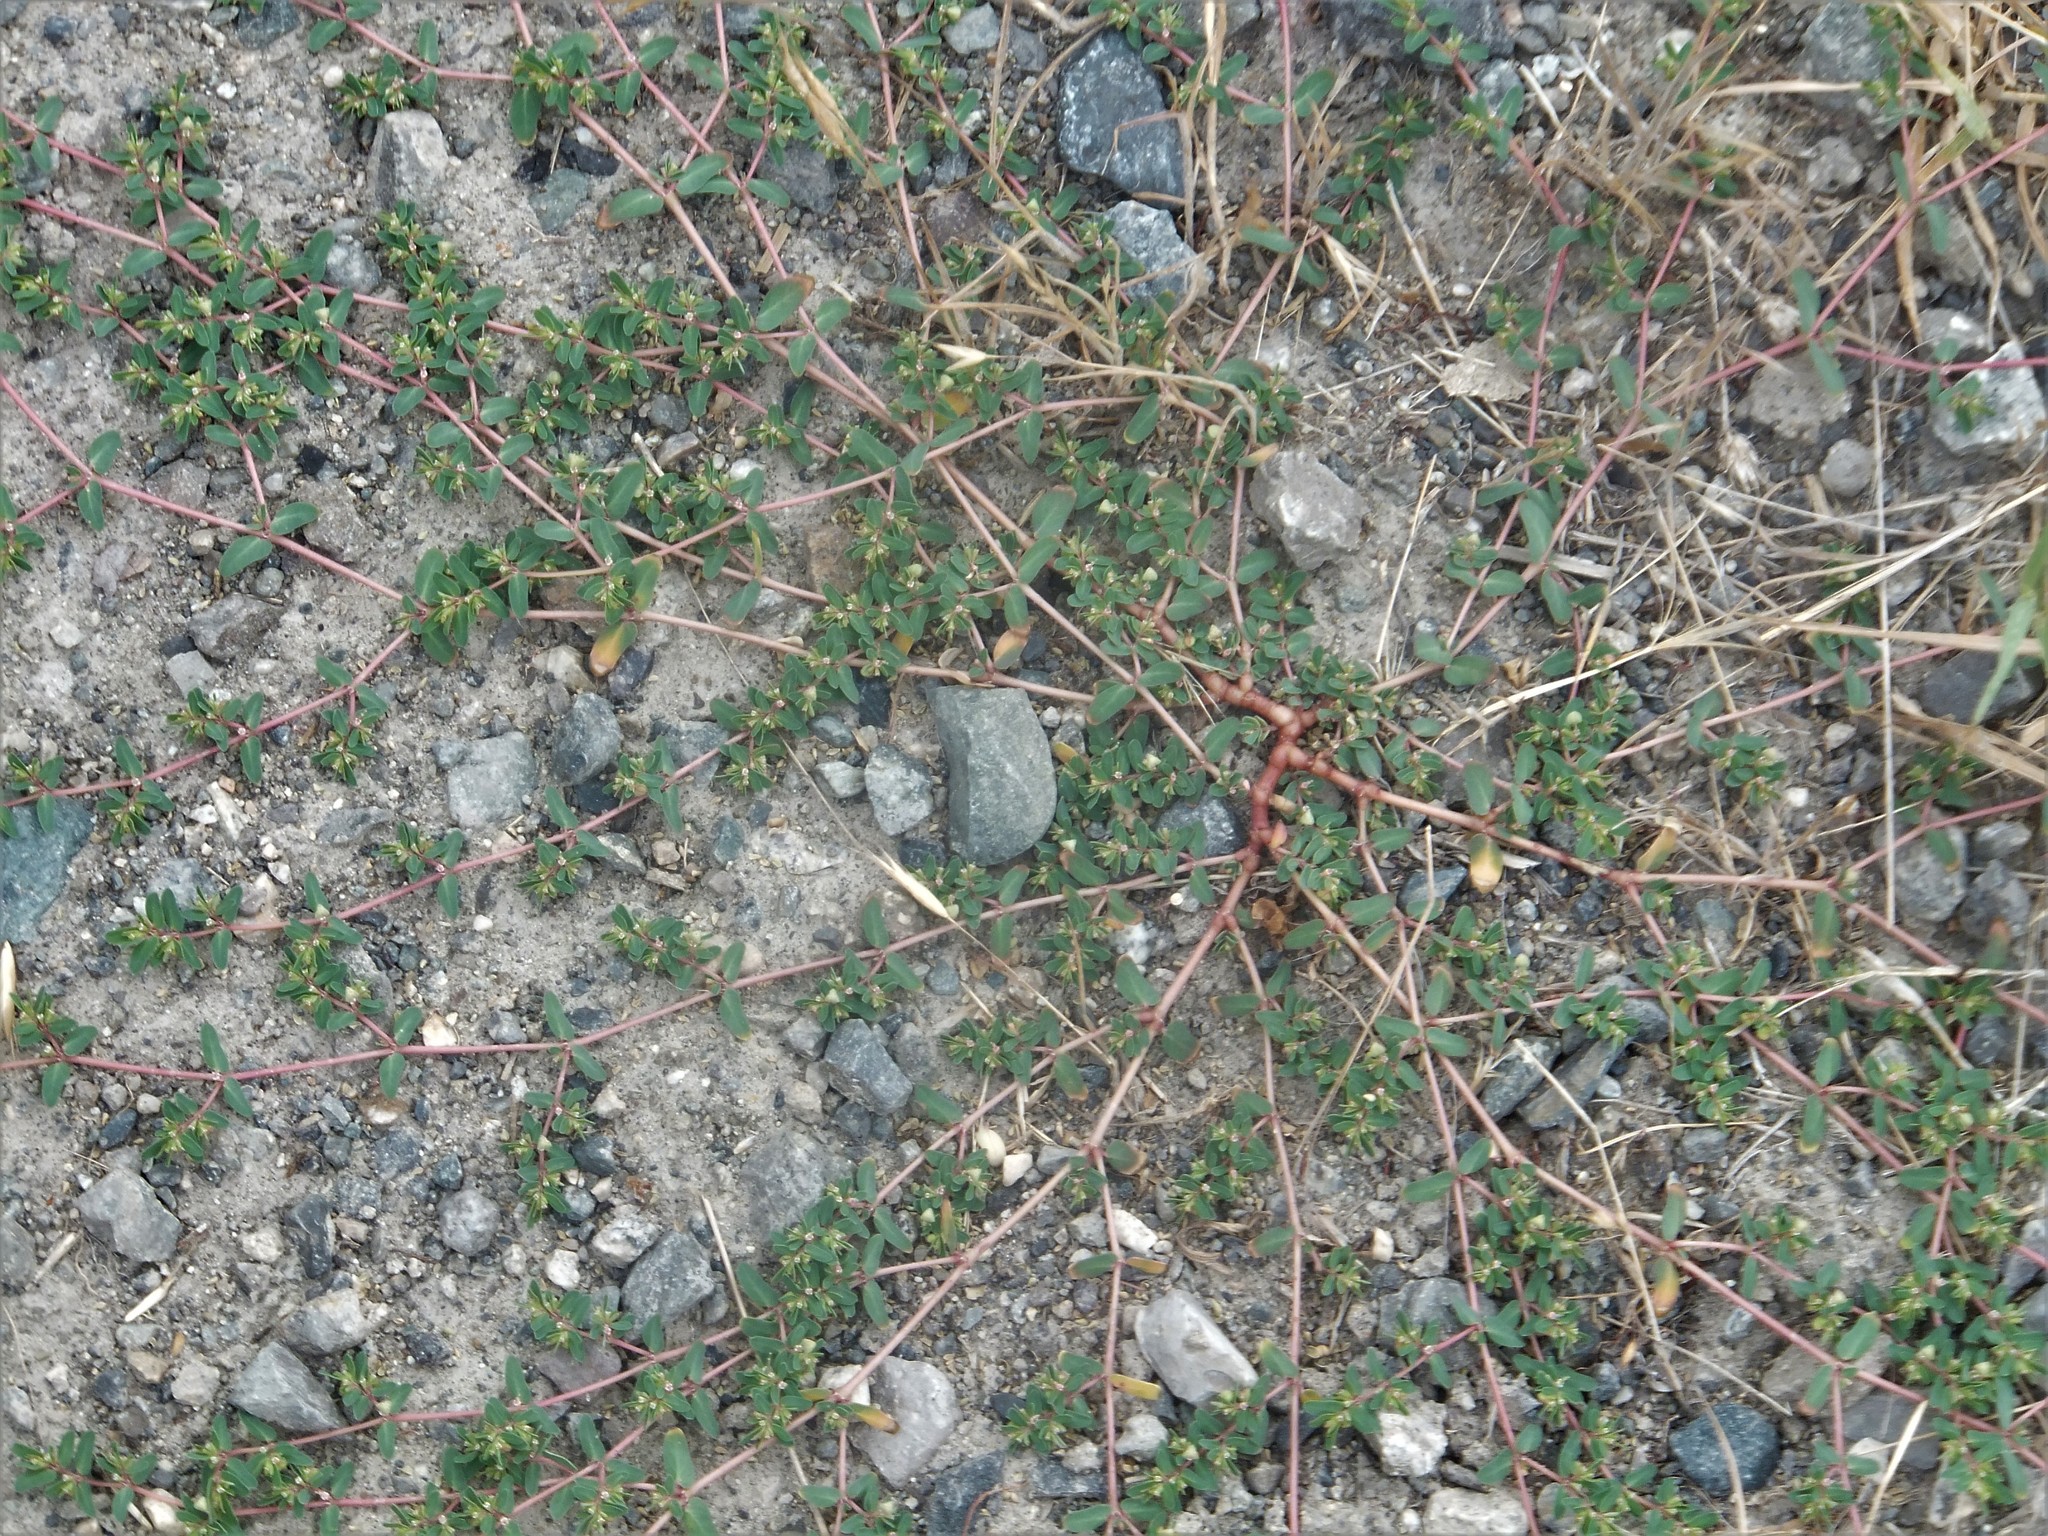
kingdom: Plantae
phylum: Tracheophyta
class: Magnoliopsida
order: Caryophyllales
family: Polygonaceae
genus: Polygonum
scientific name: Polygonum aviculare
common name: Prostrate knotweed
